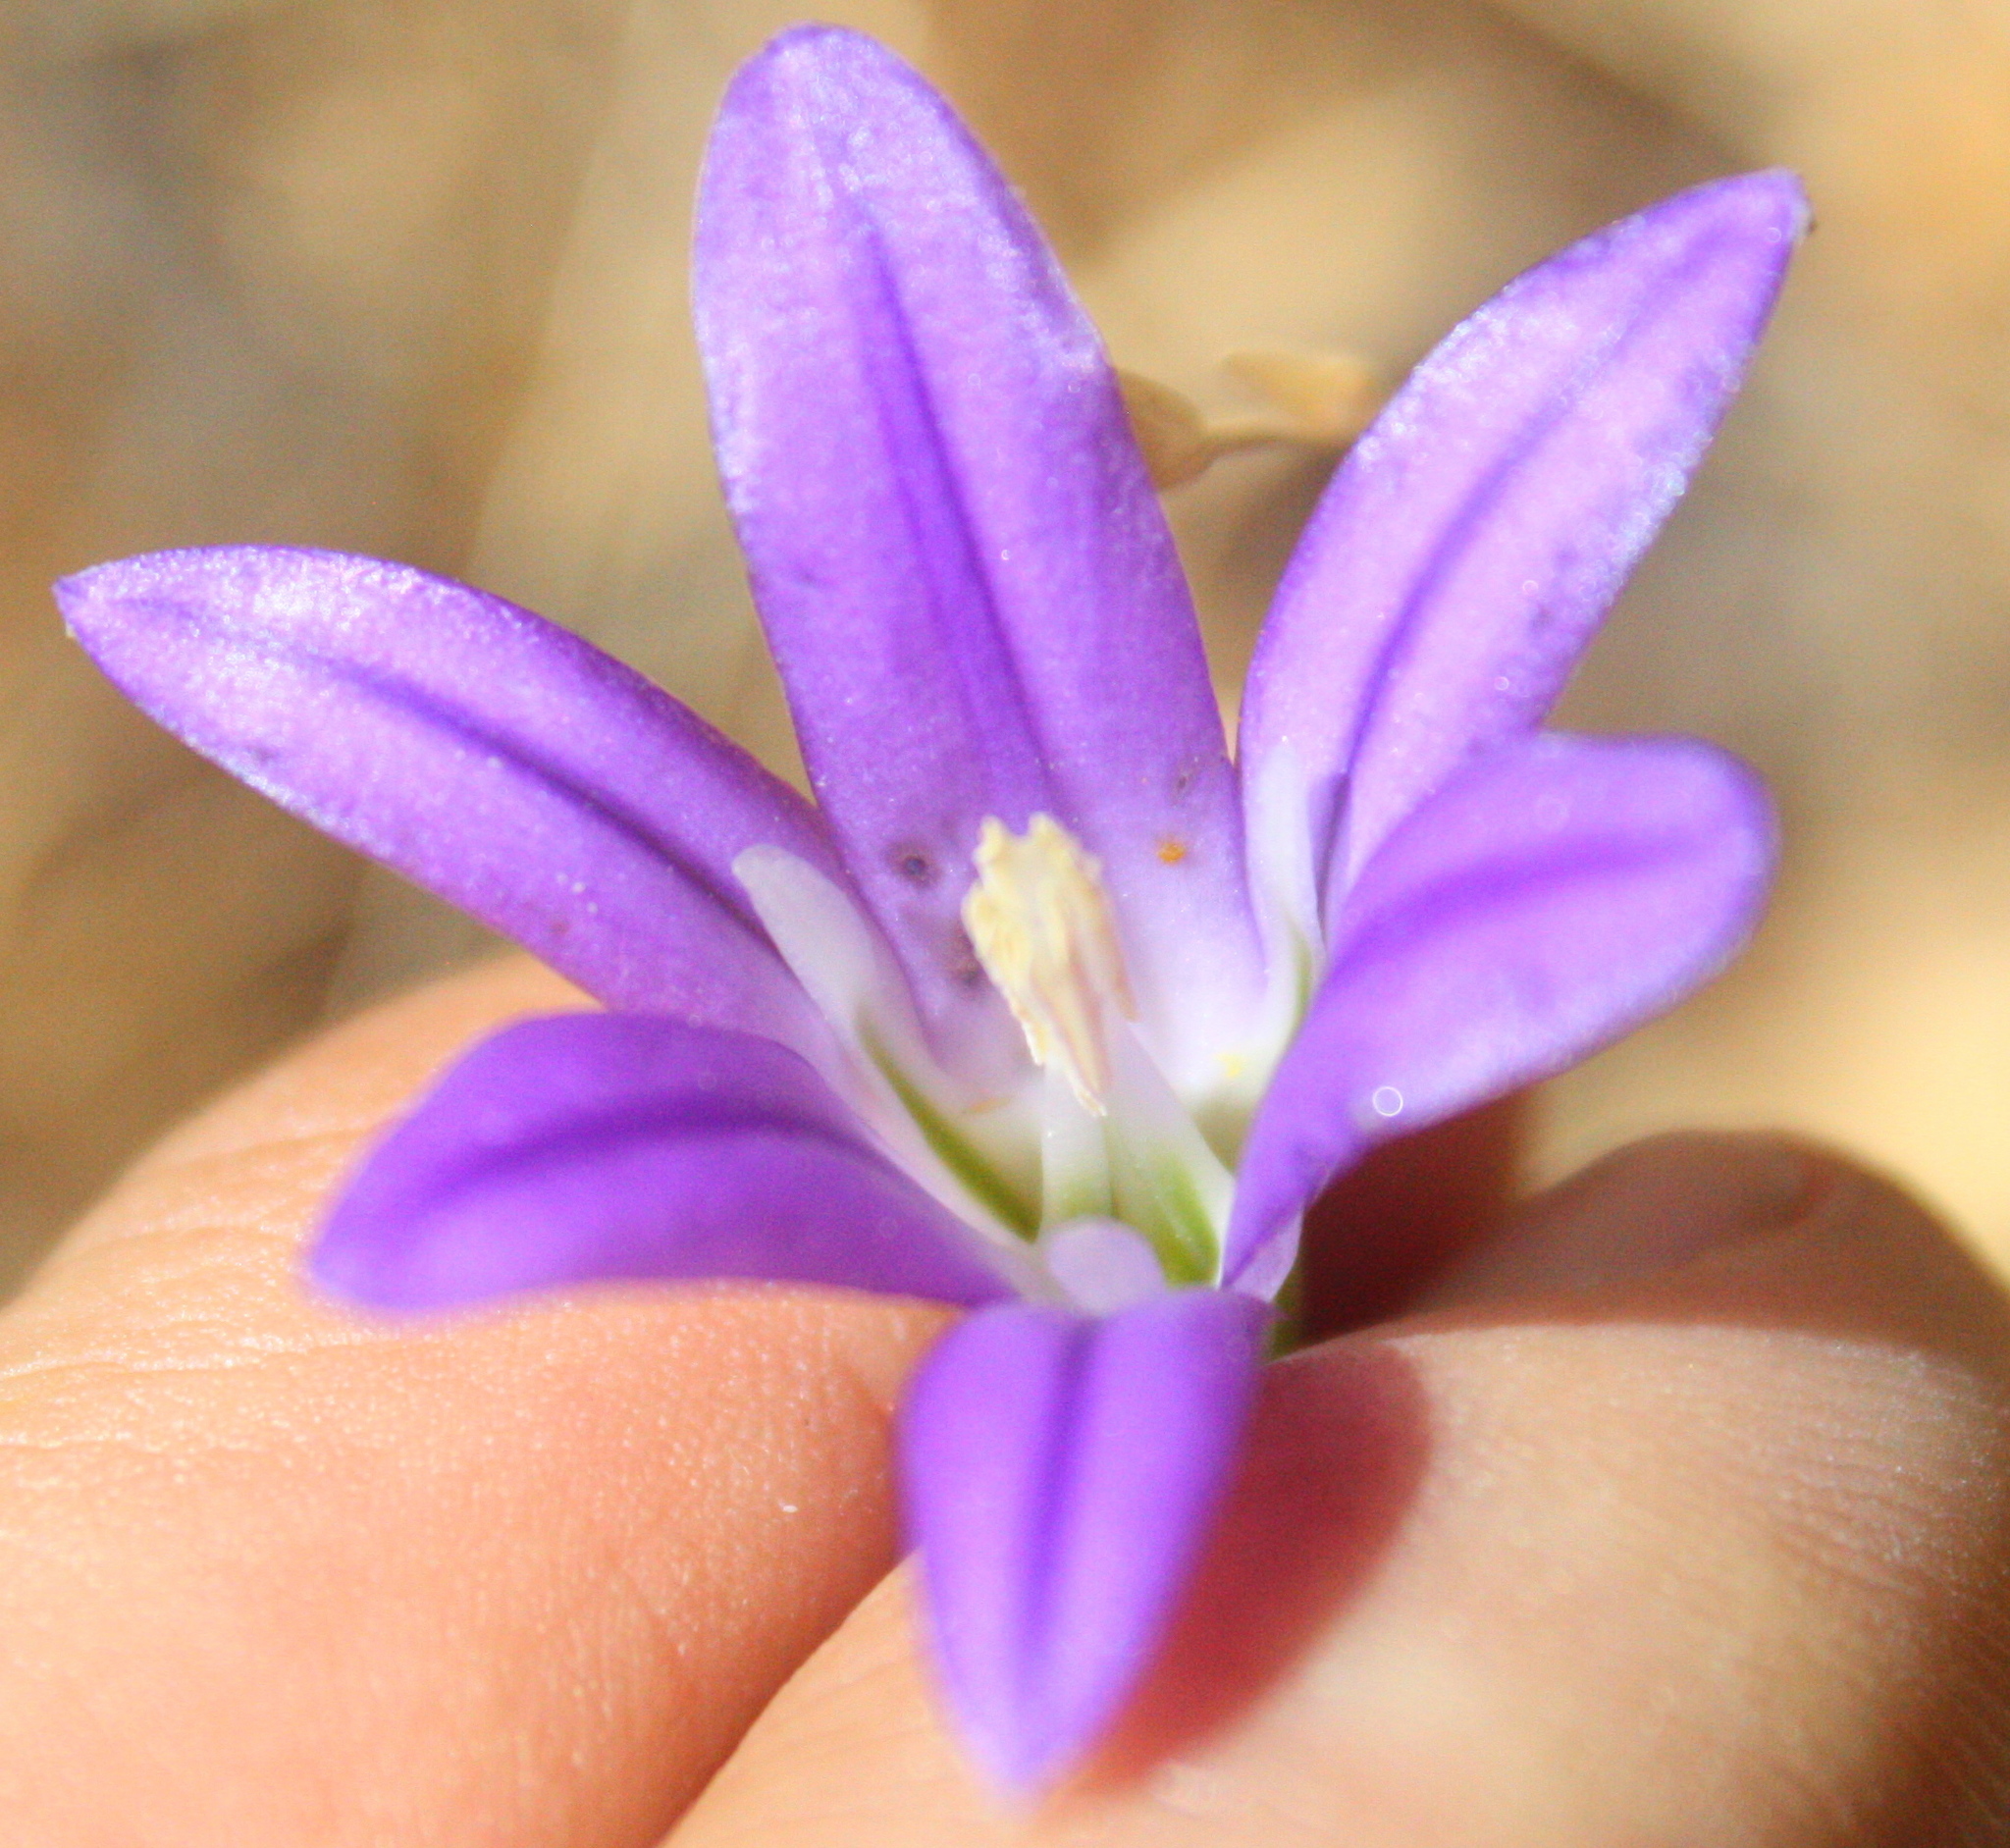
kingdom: Plantae
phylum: Tracheophyta
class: Liliopsida
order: Asparagales
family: Asparagaceae
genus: Brodiaea
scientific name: Brodiaea elegans
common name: Elegant cluster-lily
